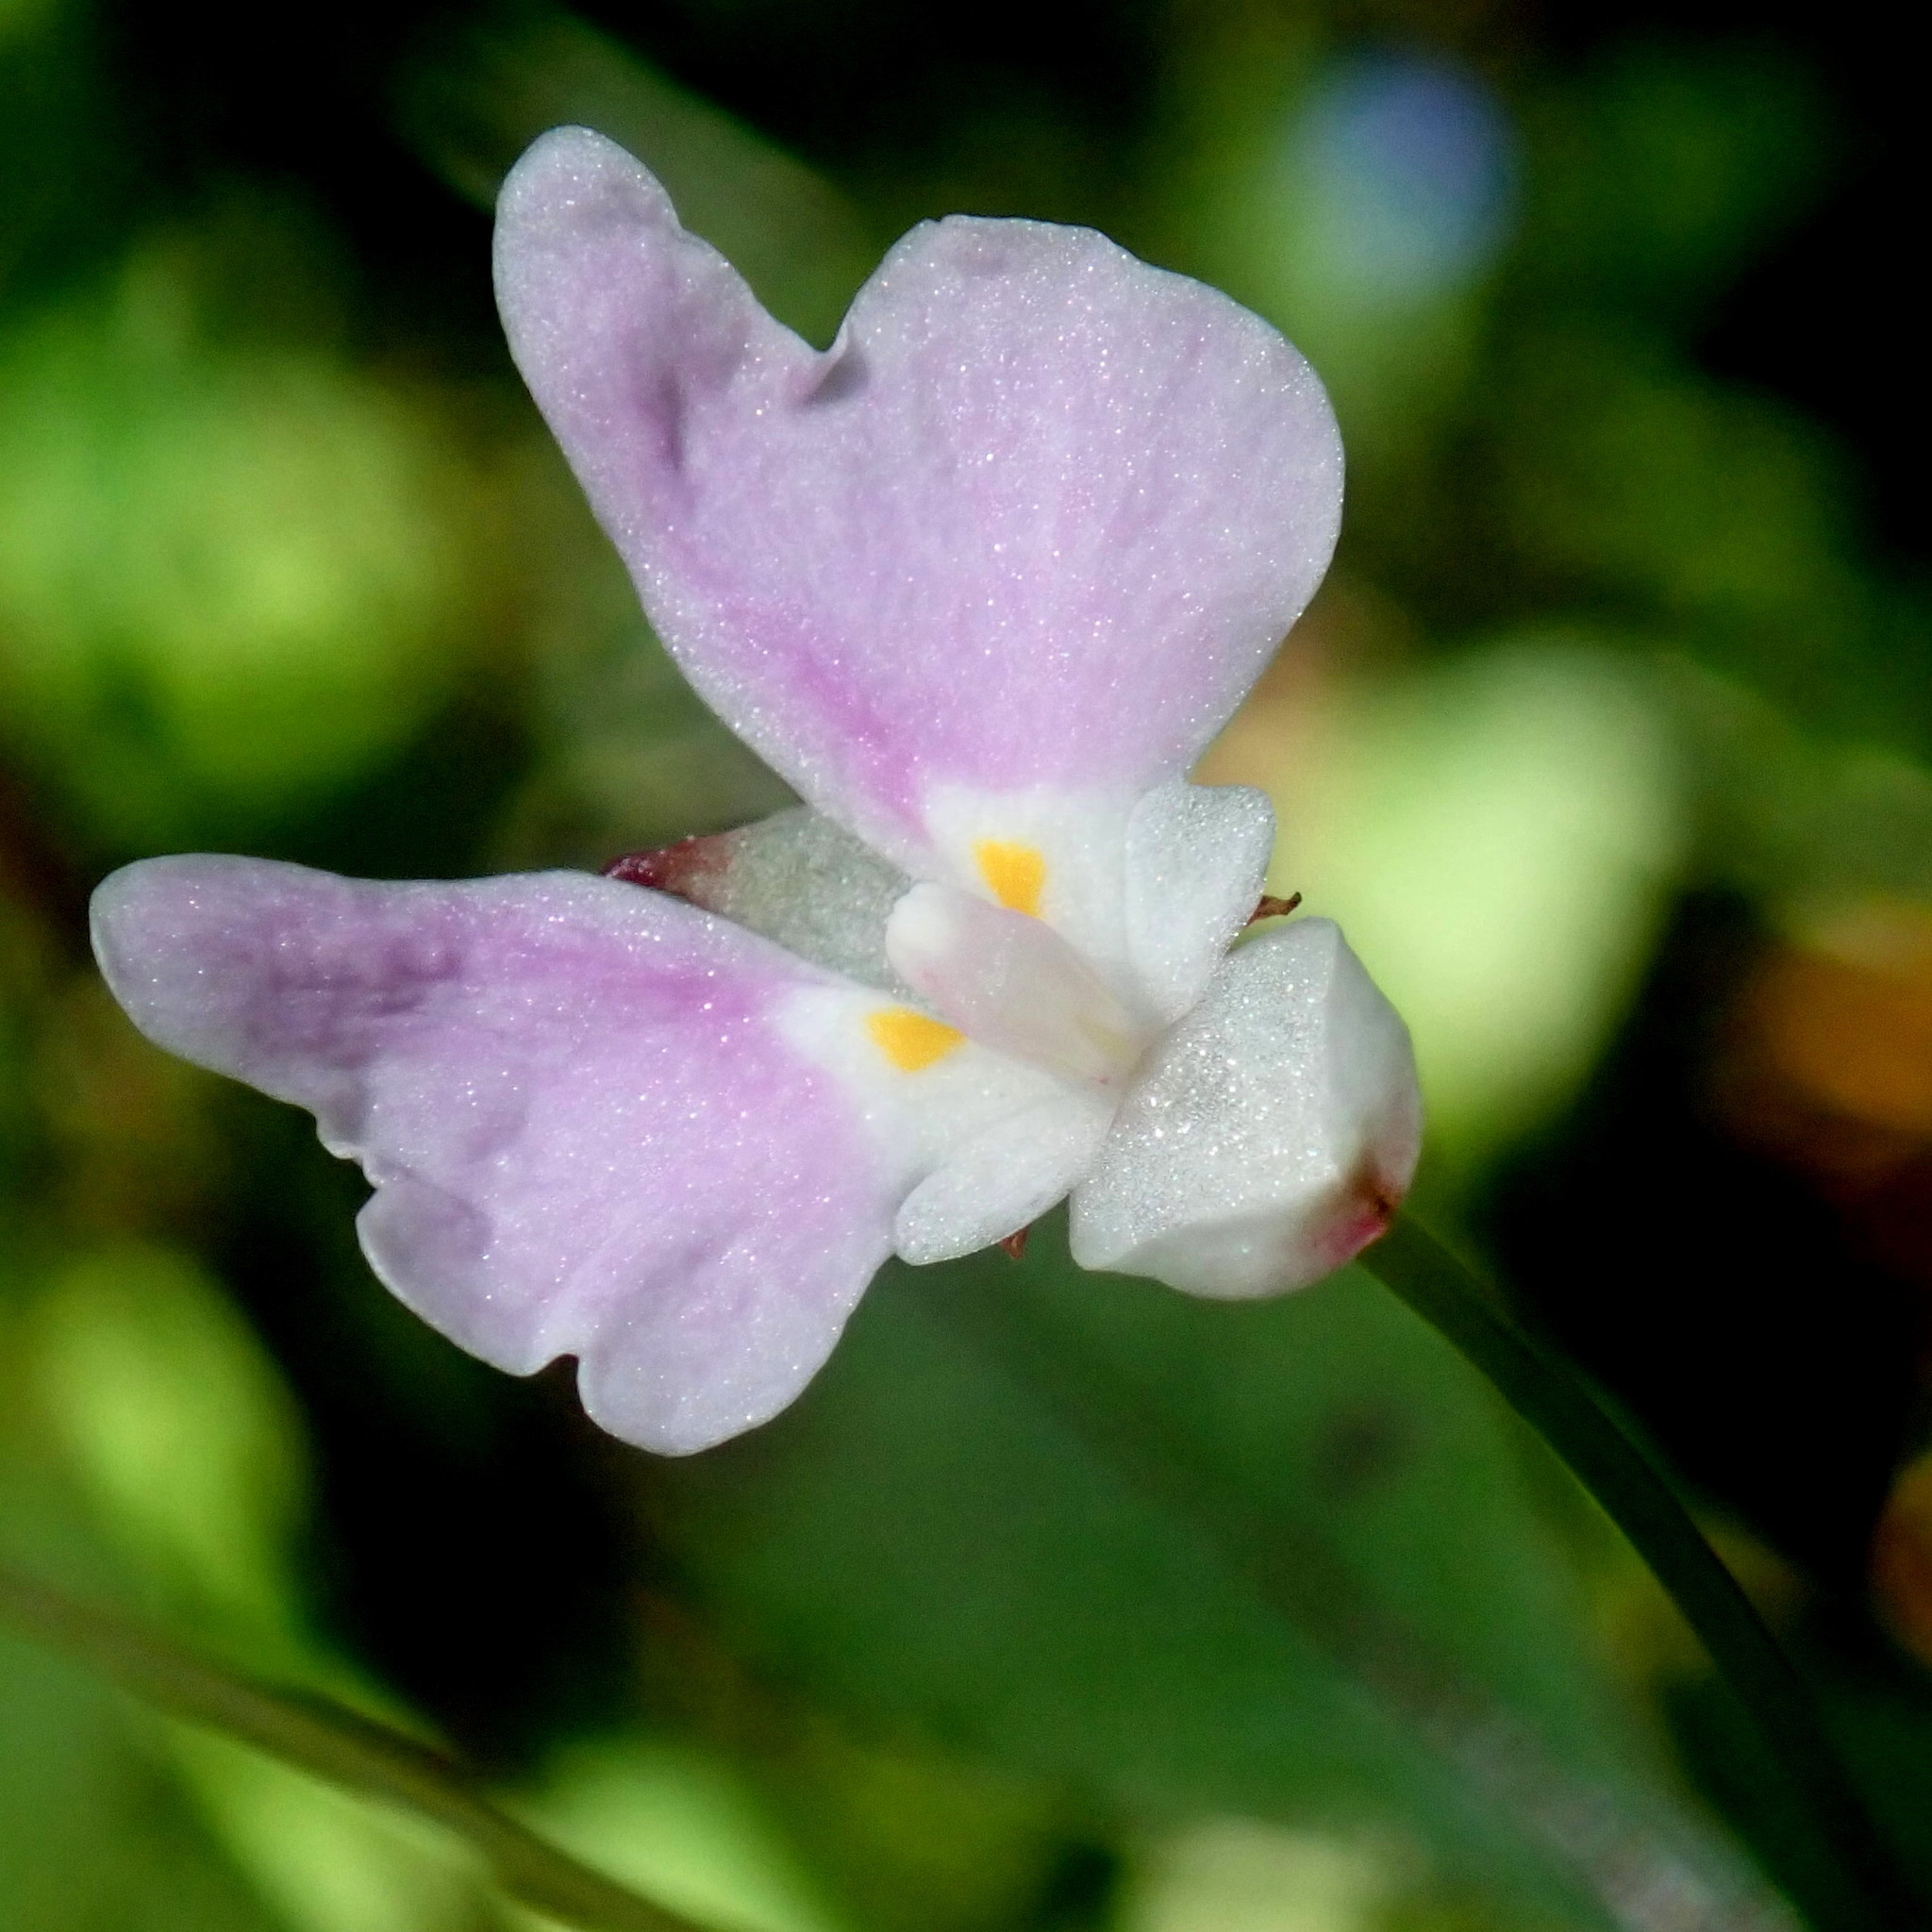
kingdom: Plantae
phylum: Tracheophyta
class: Magnoliopsida
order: Ericales
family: Balsaminaceae
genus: Impatiens
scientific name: Impatiens hochstetteri
